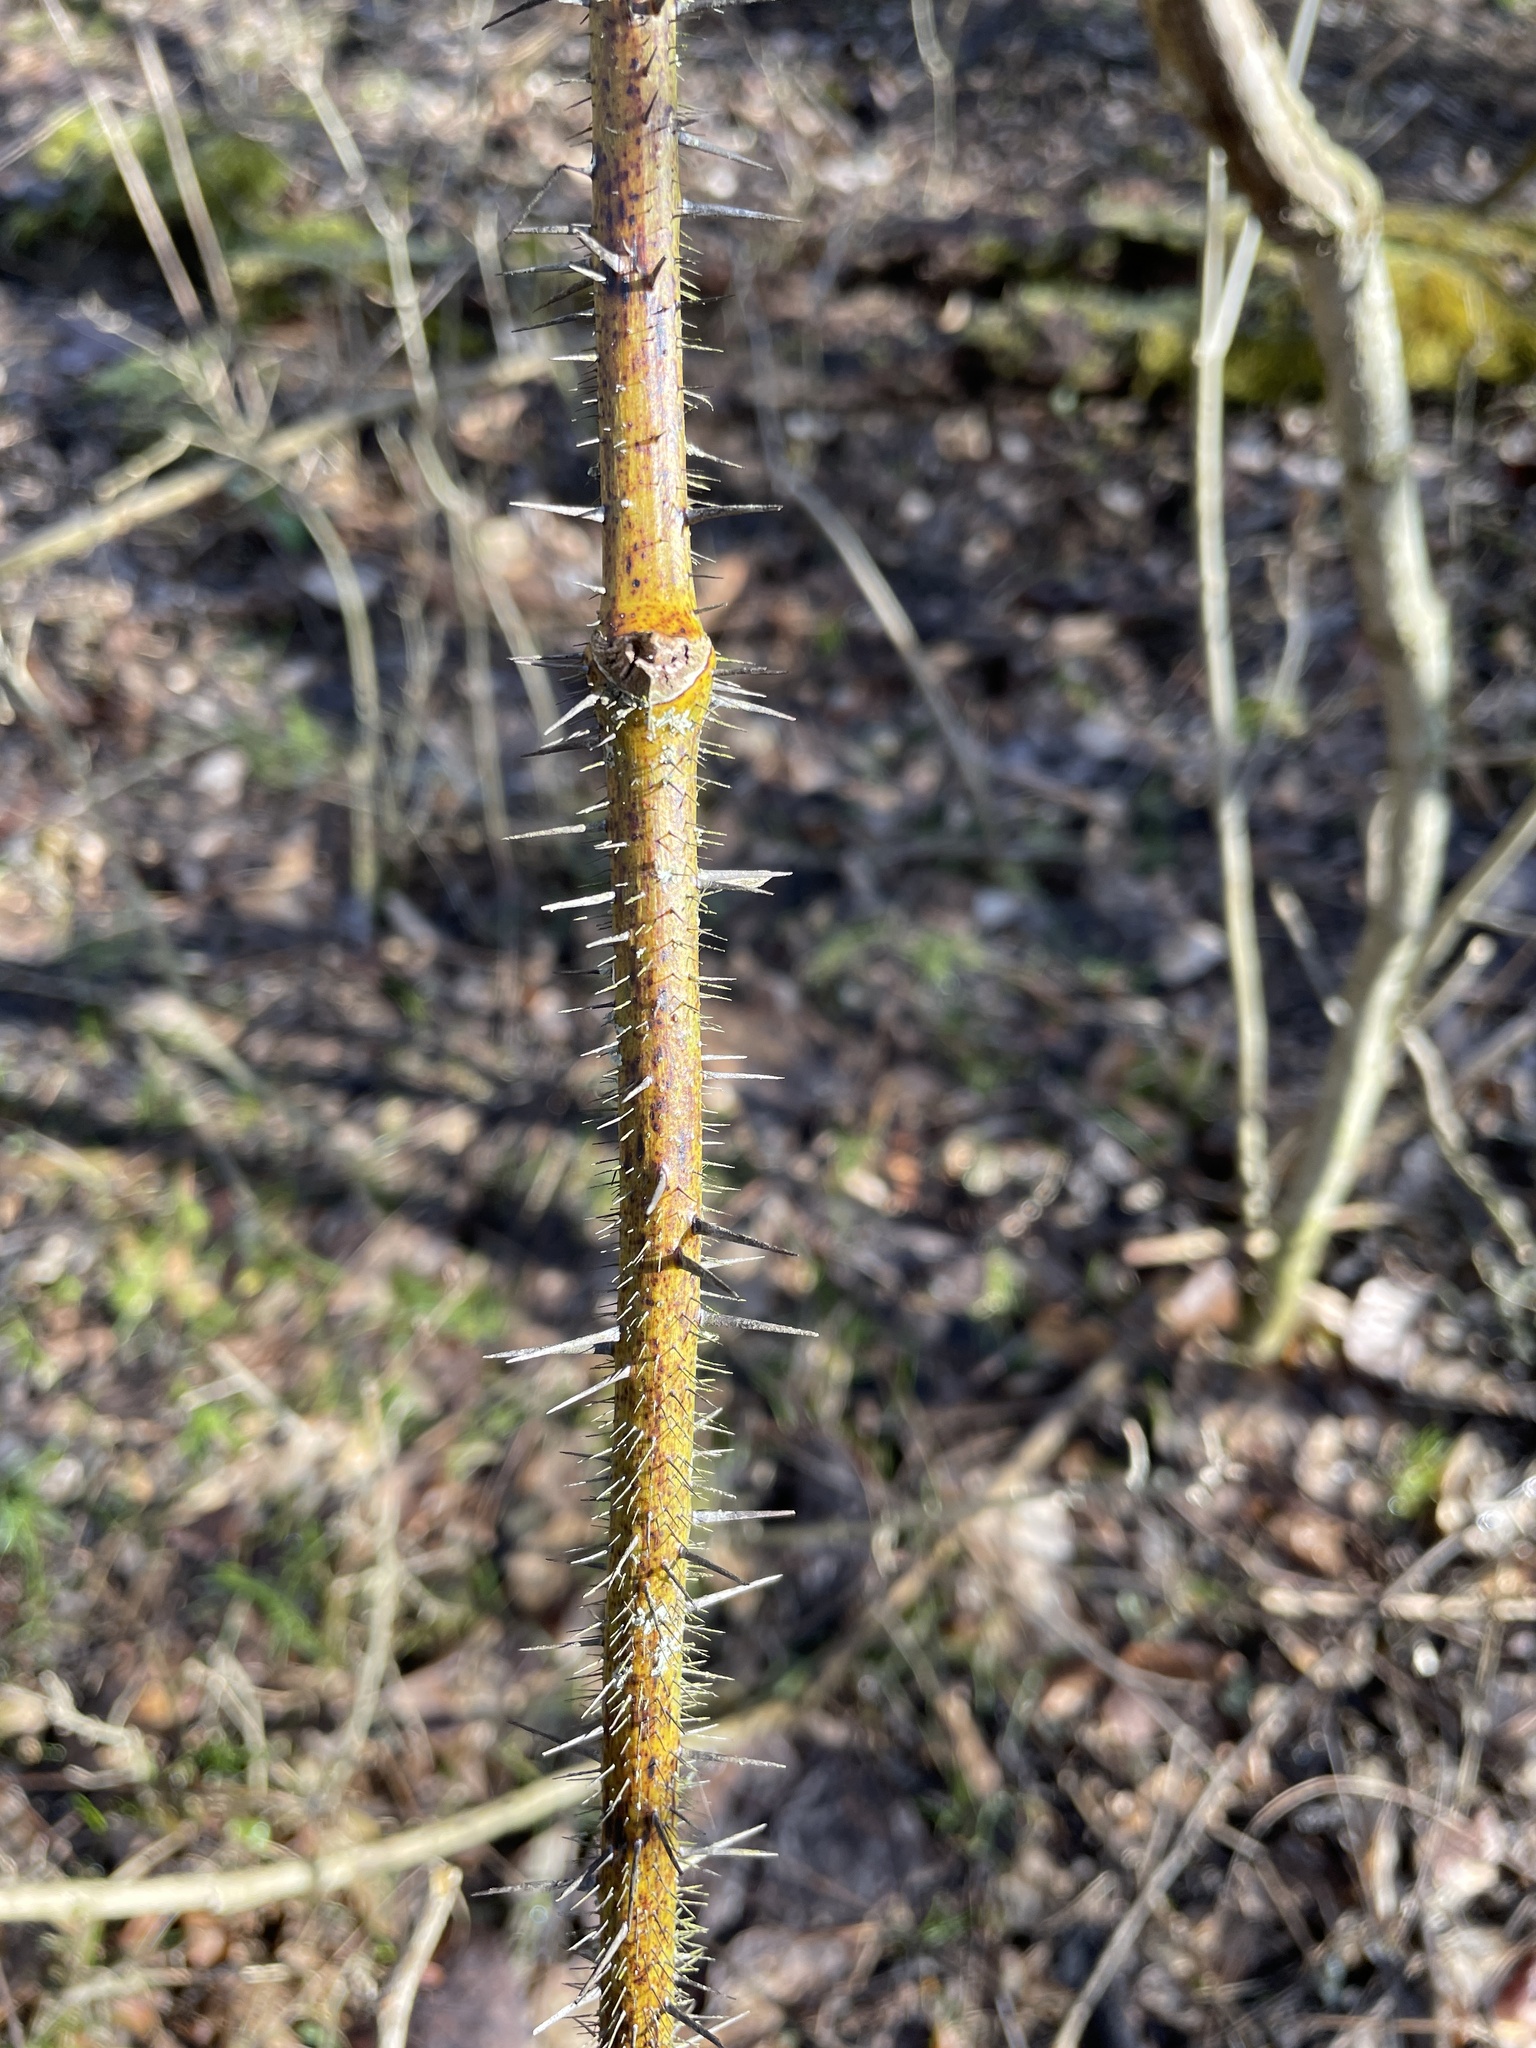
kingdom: Plantae
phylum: Tracheophyta
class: Liliopsida
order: Liliales
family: Smilacaceae
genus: Smilax
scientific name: Smilax tamnoides
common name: Hellfetter
